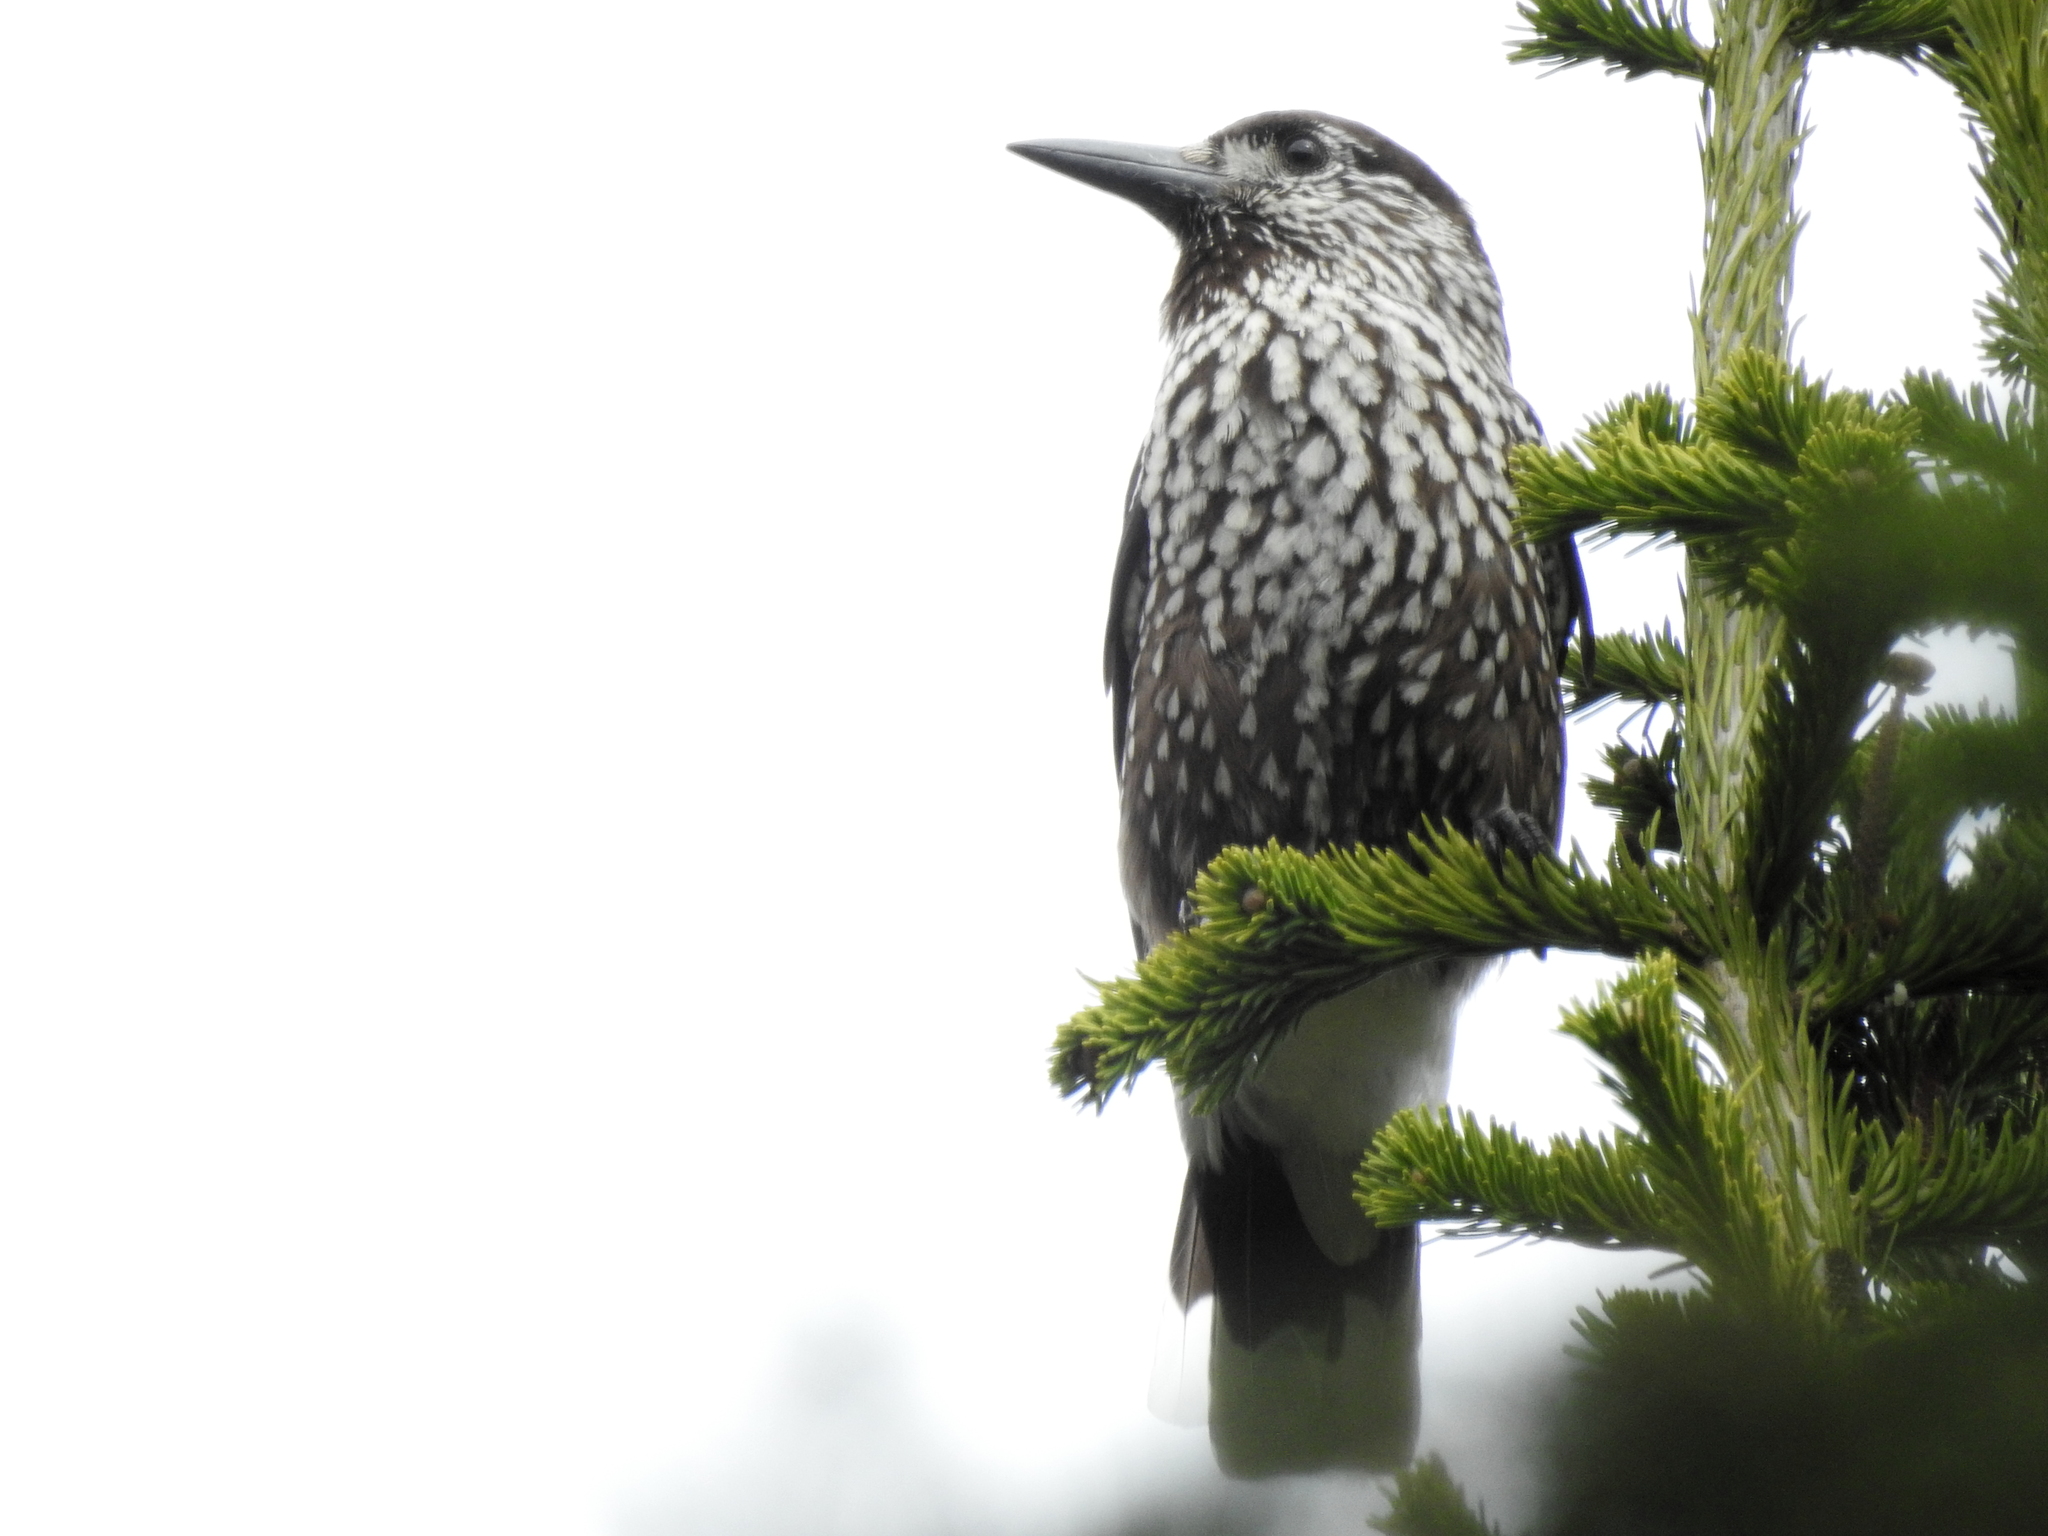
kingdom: Animalia
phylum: Chordata
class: Aves
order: Passeriformes
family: Corvidae
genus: Nucifraga
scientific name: Nucifraga caryocatactes
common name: Spotted nutcracker
